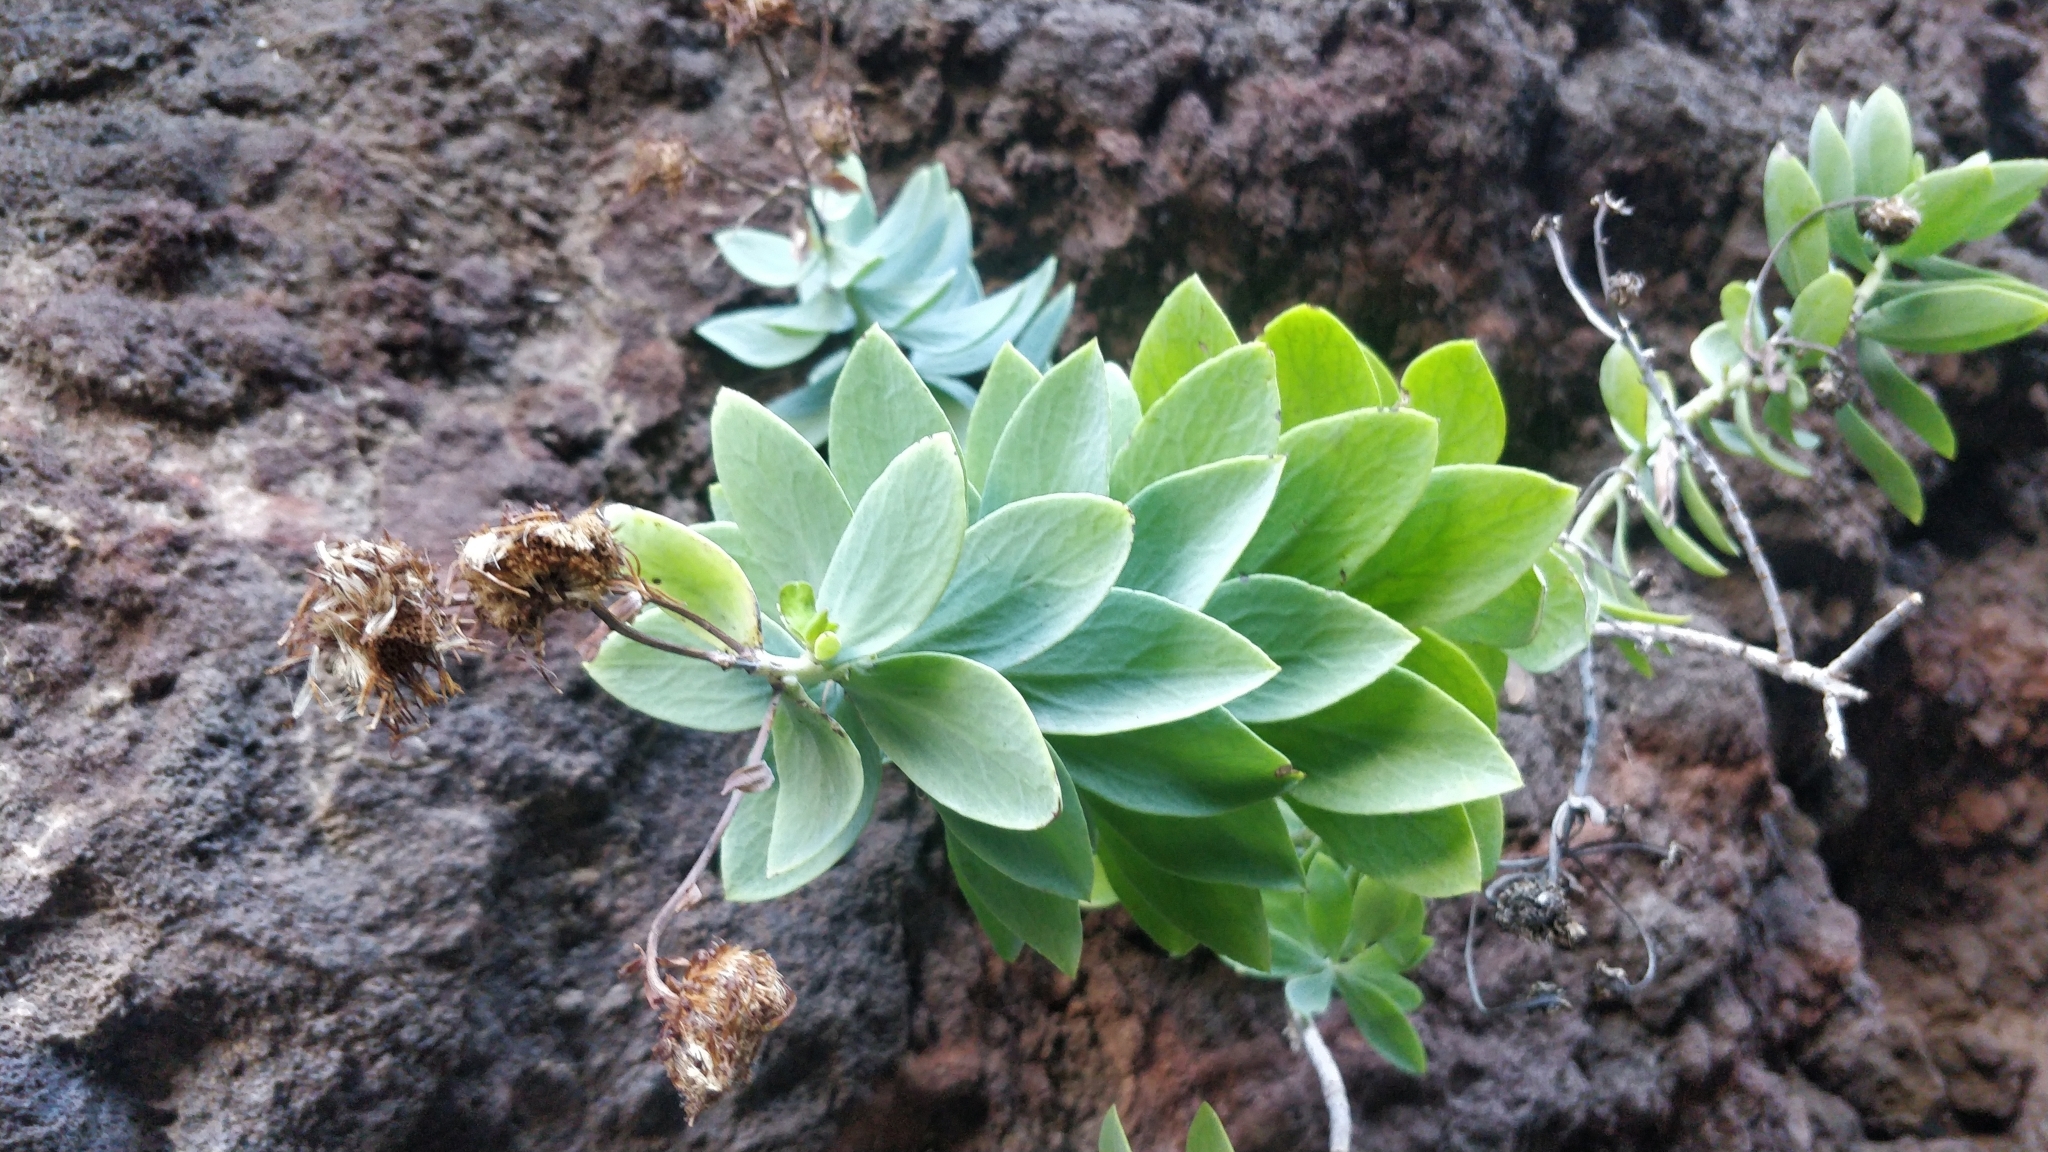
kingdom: Plantae
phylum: Tracheophyta
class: Magnoliopsida
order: Asterales
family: Asteraceae
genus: Vieraea
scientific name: Vieraea laevigata
